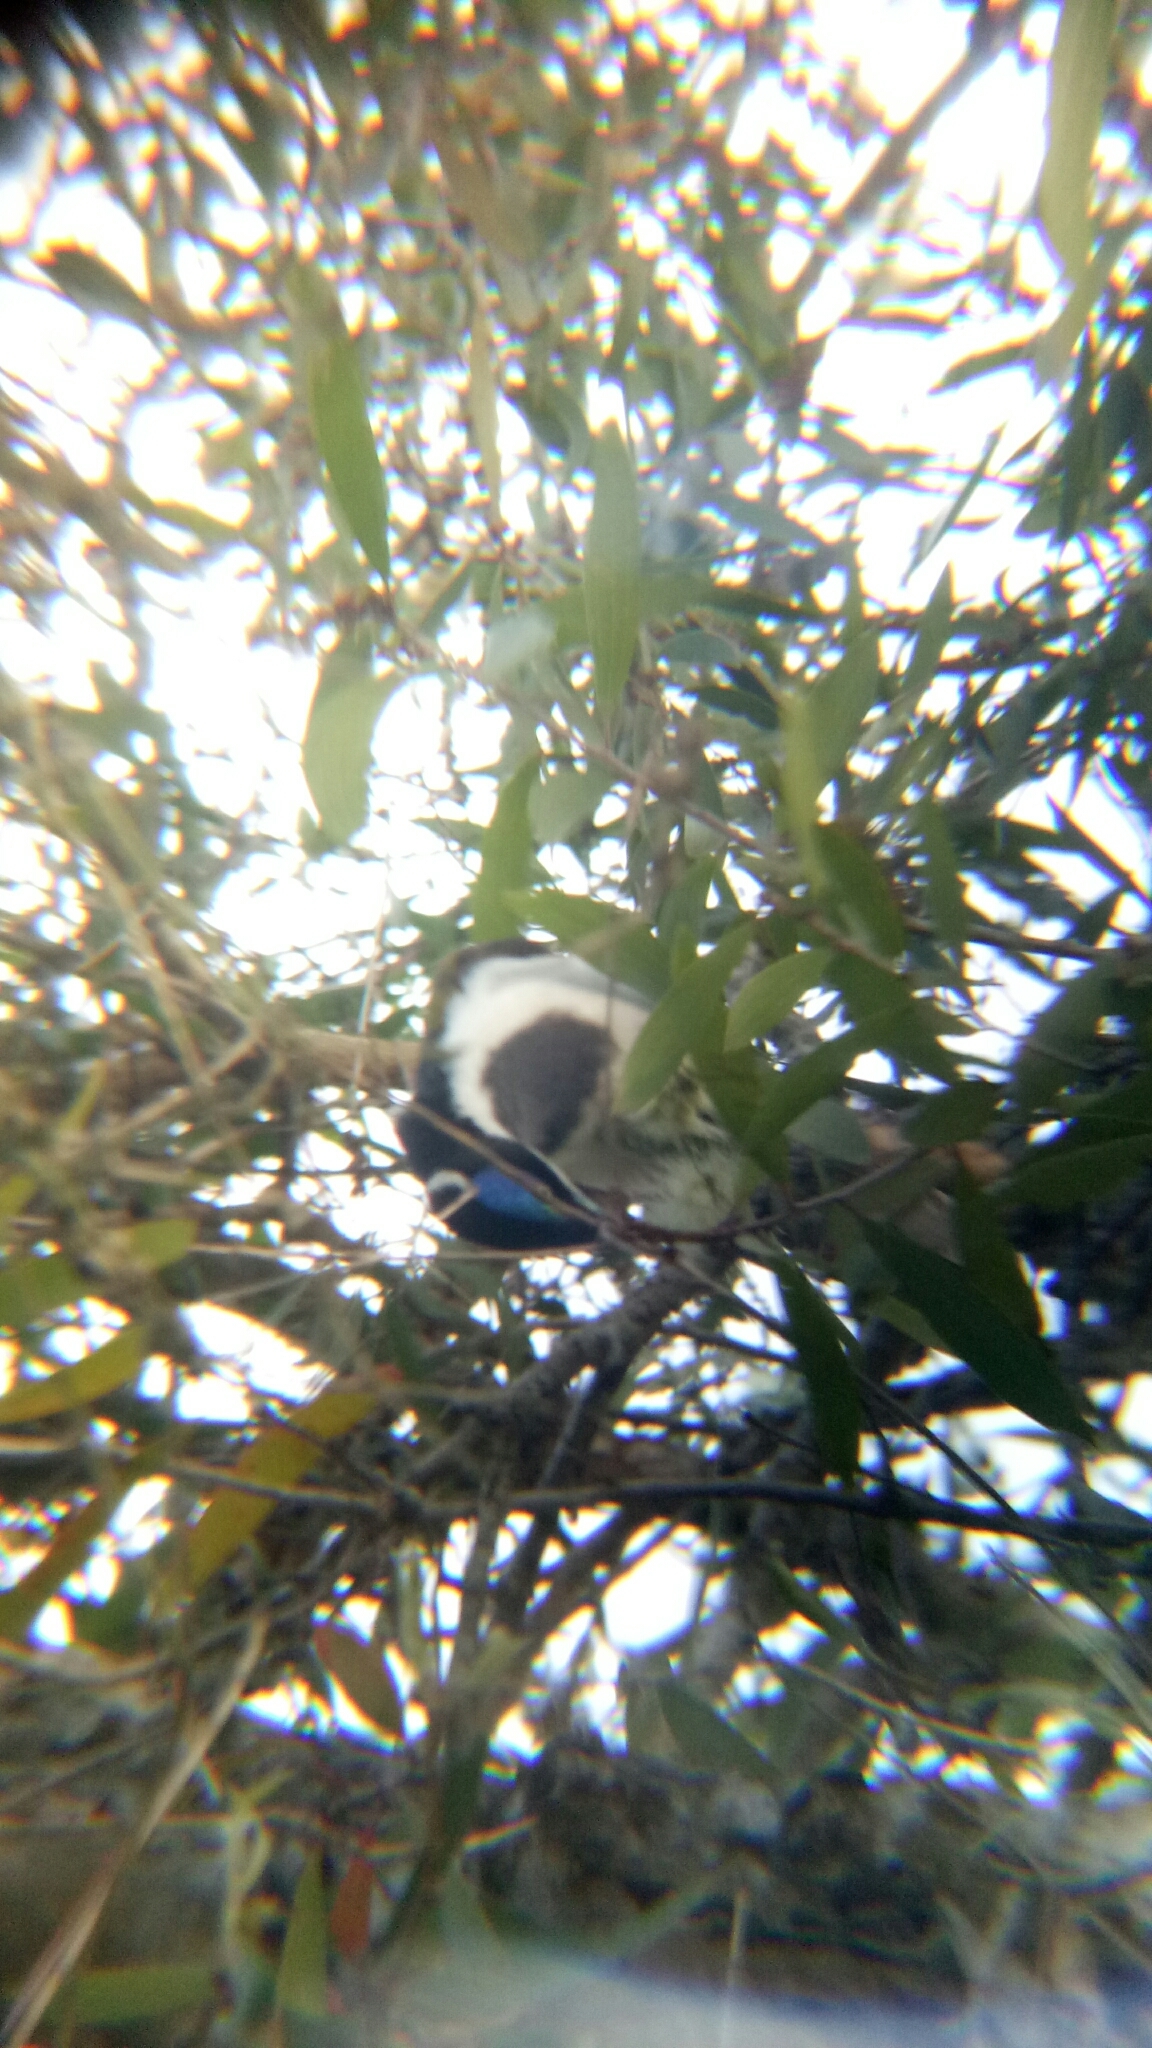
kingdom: Animalia
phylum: Chordata
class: Aves
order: Passeriformes
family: Meliphagidae
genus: Entomyzon
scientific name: Entomyzon cyanotis
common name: Blue-faced honeyeater
